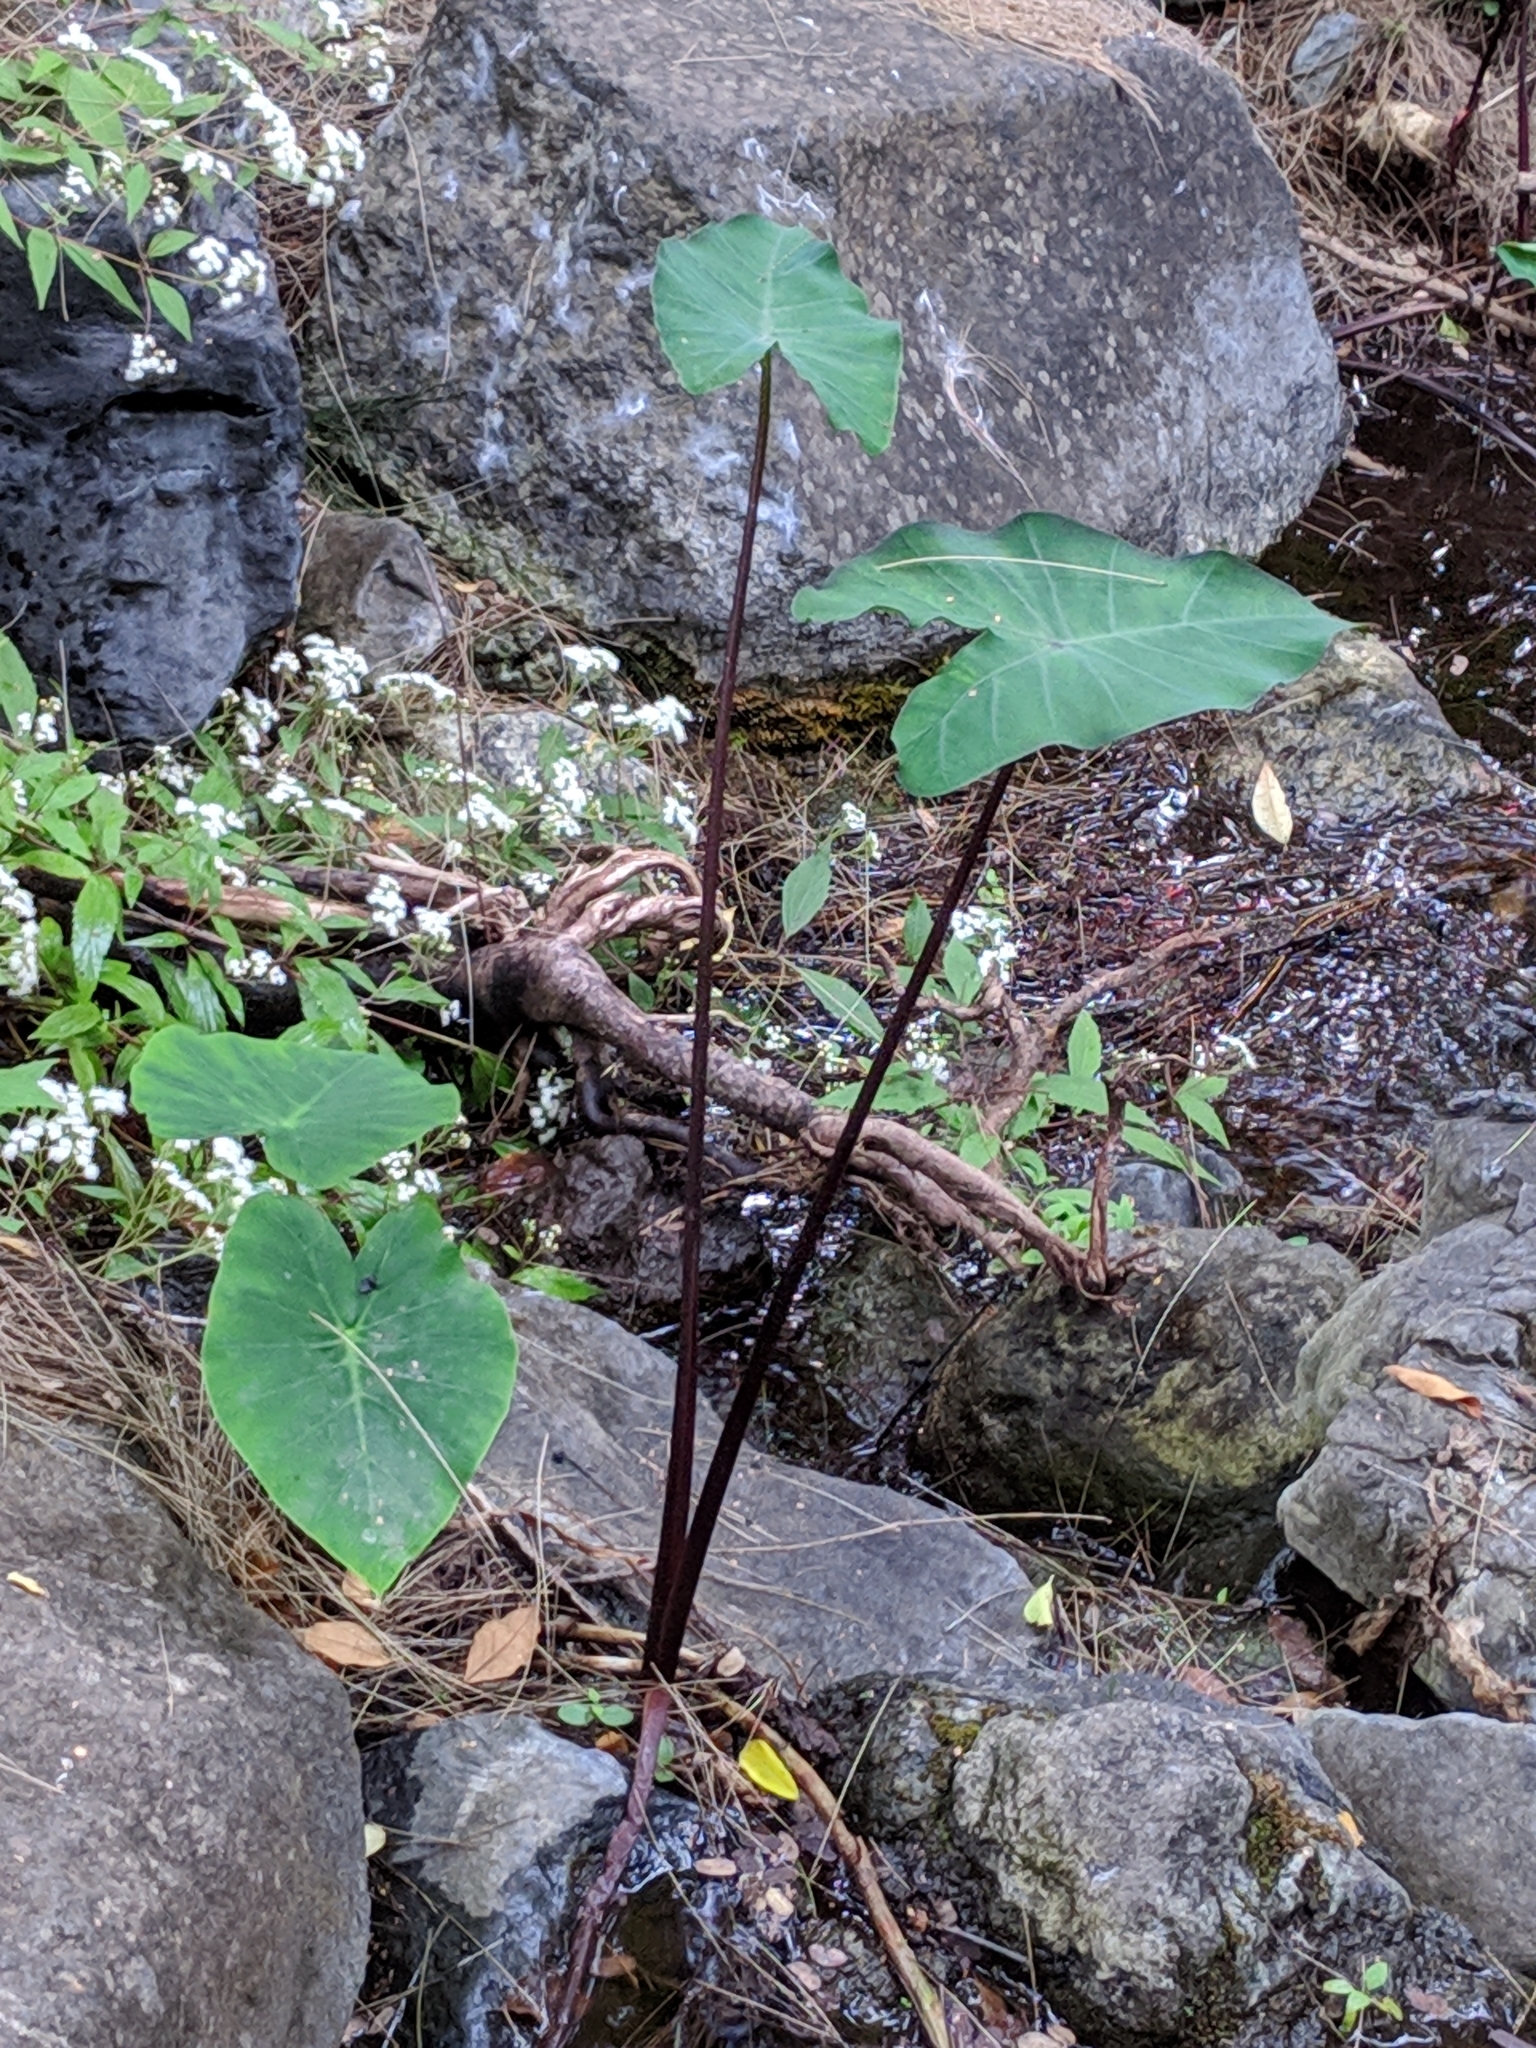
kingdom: Plantae
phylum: Tracheophyta
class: Liliopsida
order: Alismatales
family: Araceae
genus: Colocasia
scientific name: Colocasia esculenta
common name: Taro
